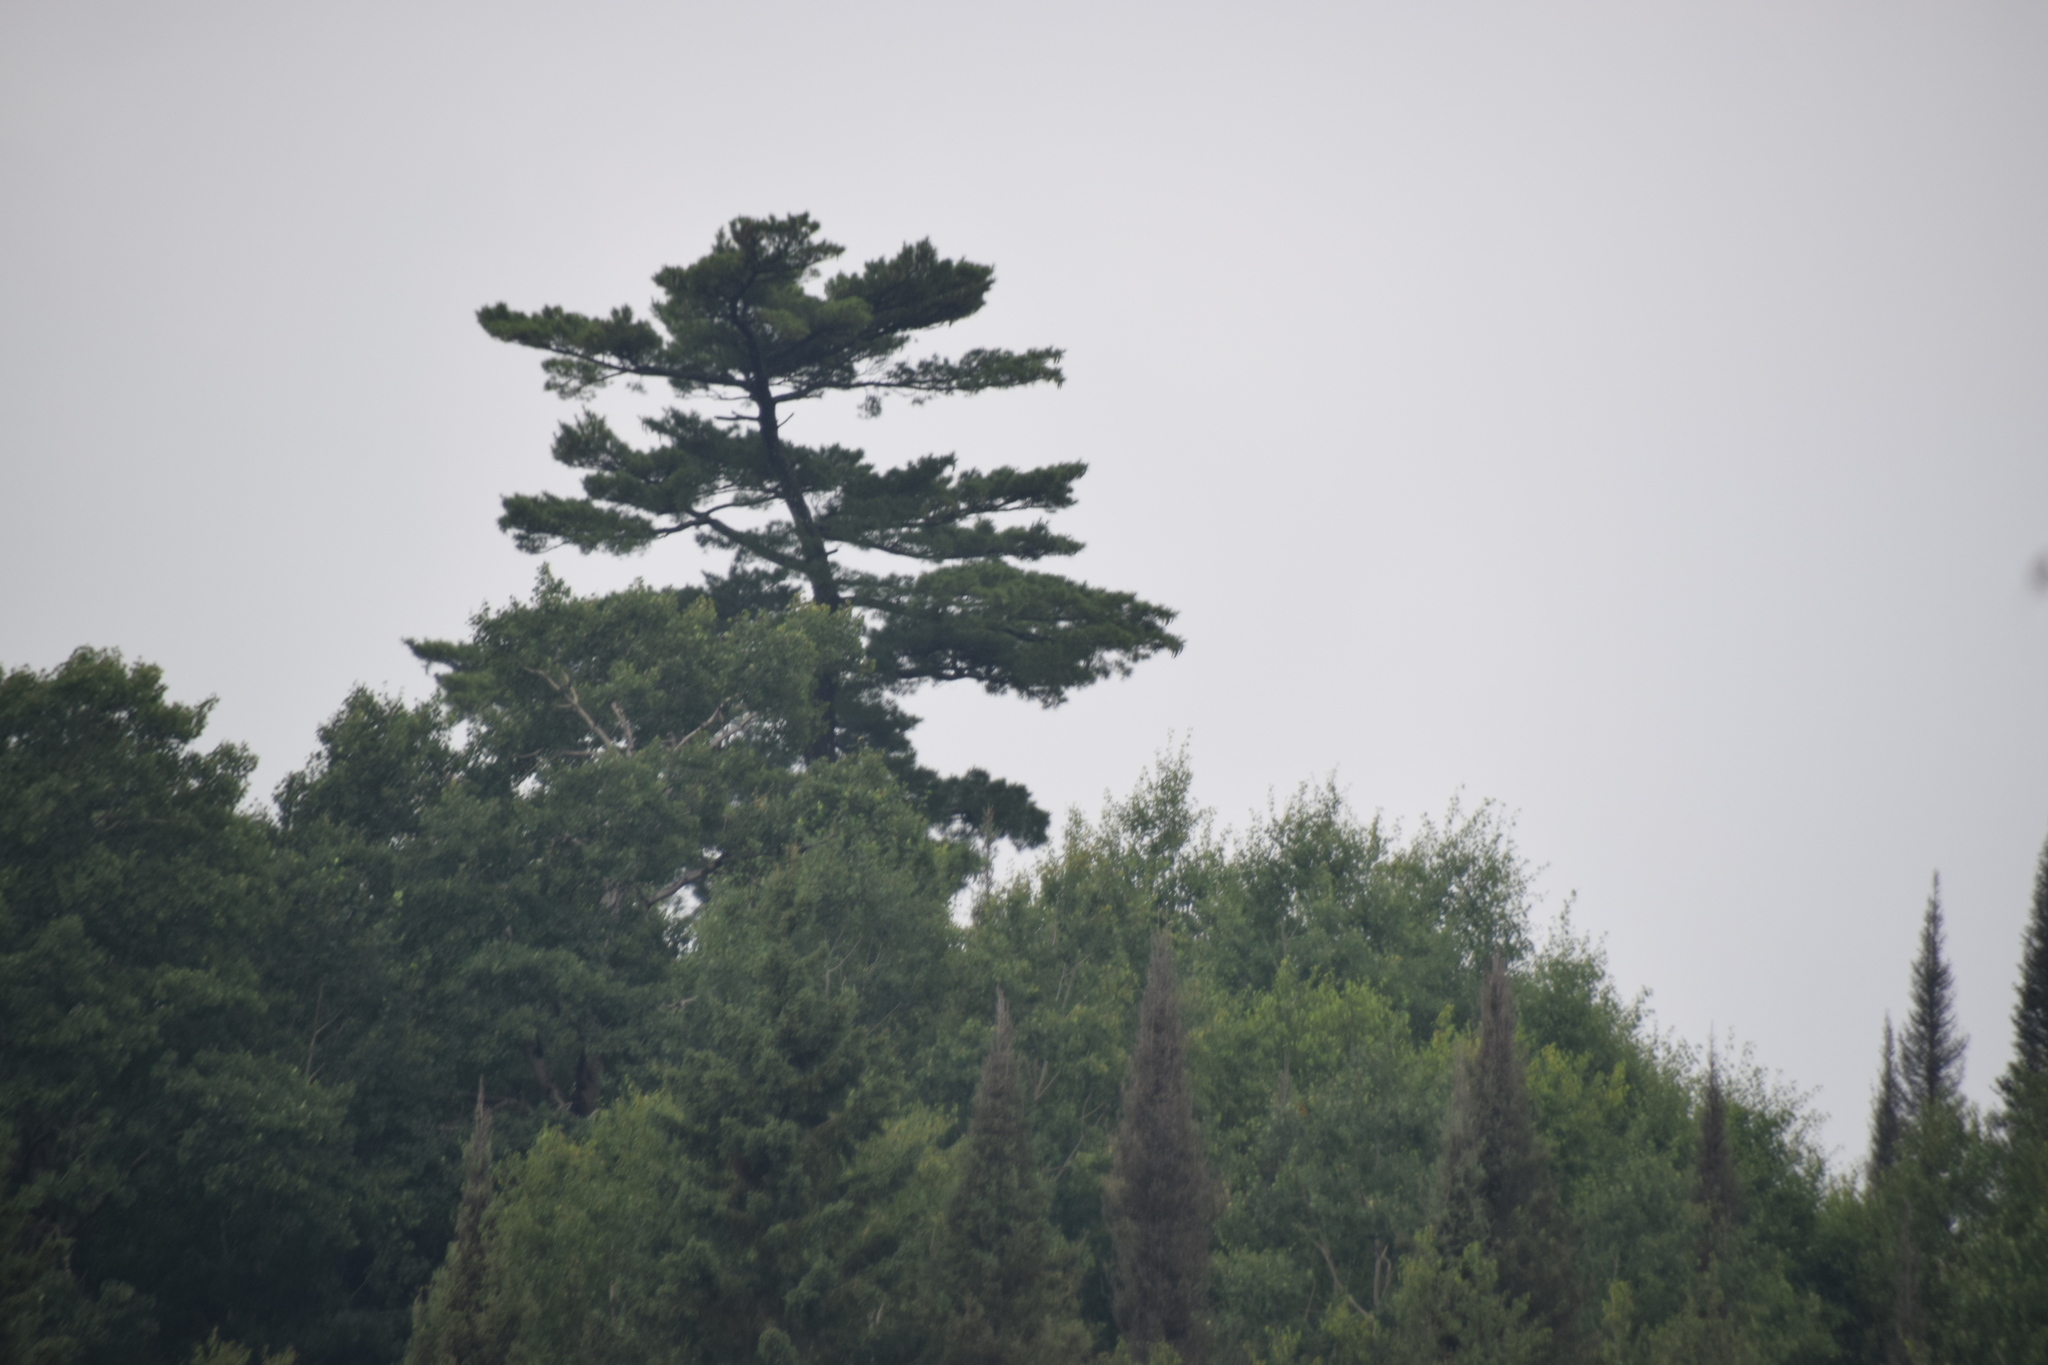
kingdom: Plantae
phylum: Tracheophyta
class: Pinopsida
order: Pinales
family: Pinaceae
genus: Pinus
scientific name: Pinus strobus
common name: Weymouth pine
